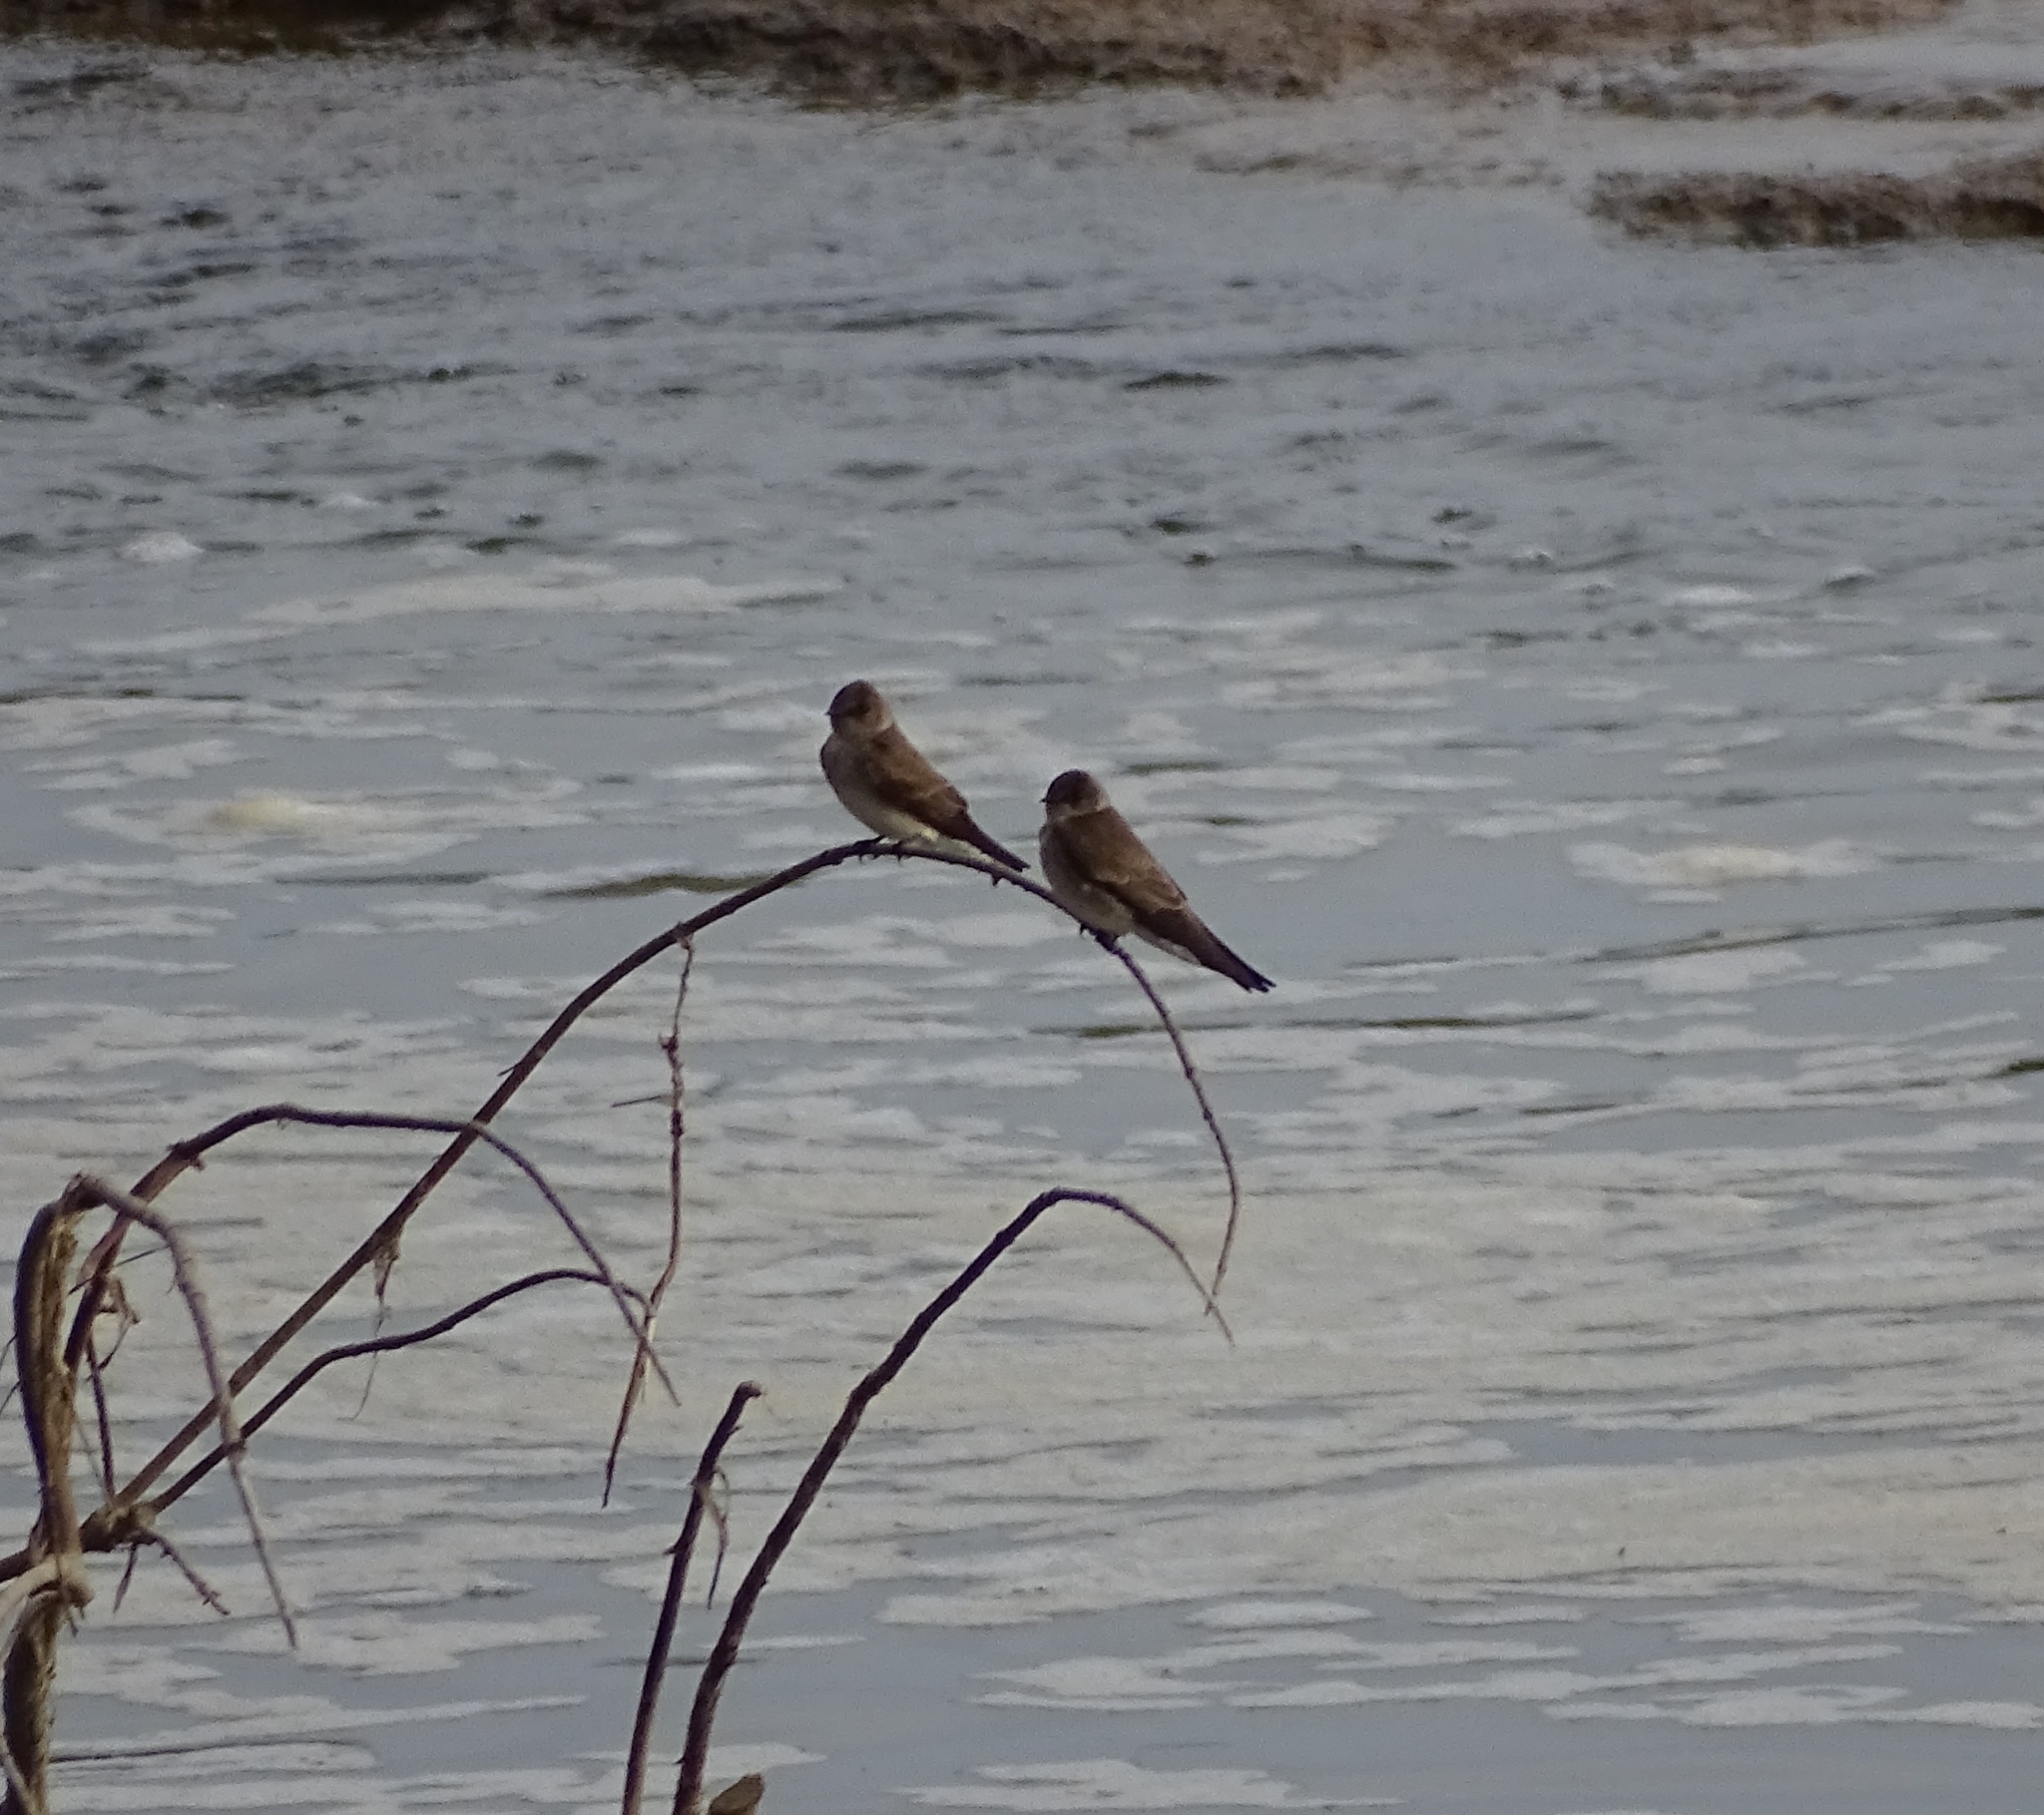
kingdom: Animalia
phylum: Chordata
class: Aves
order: Passeriformes
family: Hirundinidae
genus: Stelgidopteryx
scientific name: Stelgidopteryx serripennis
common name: Northern rough-winged swallow
